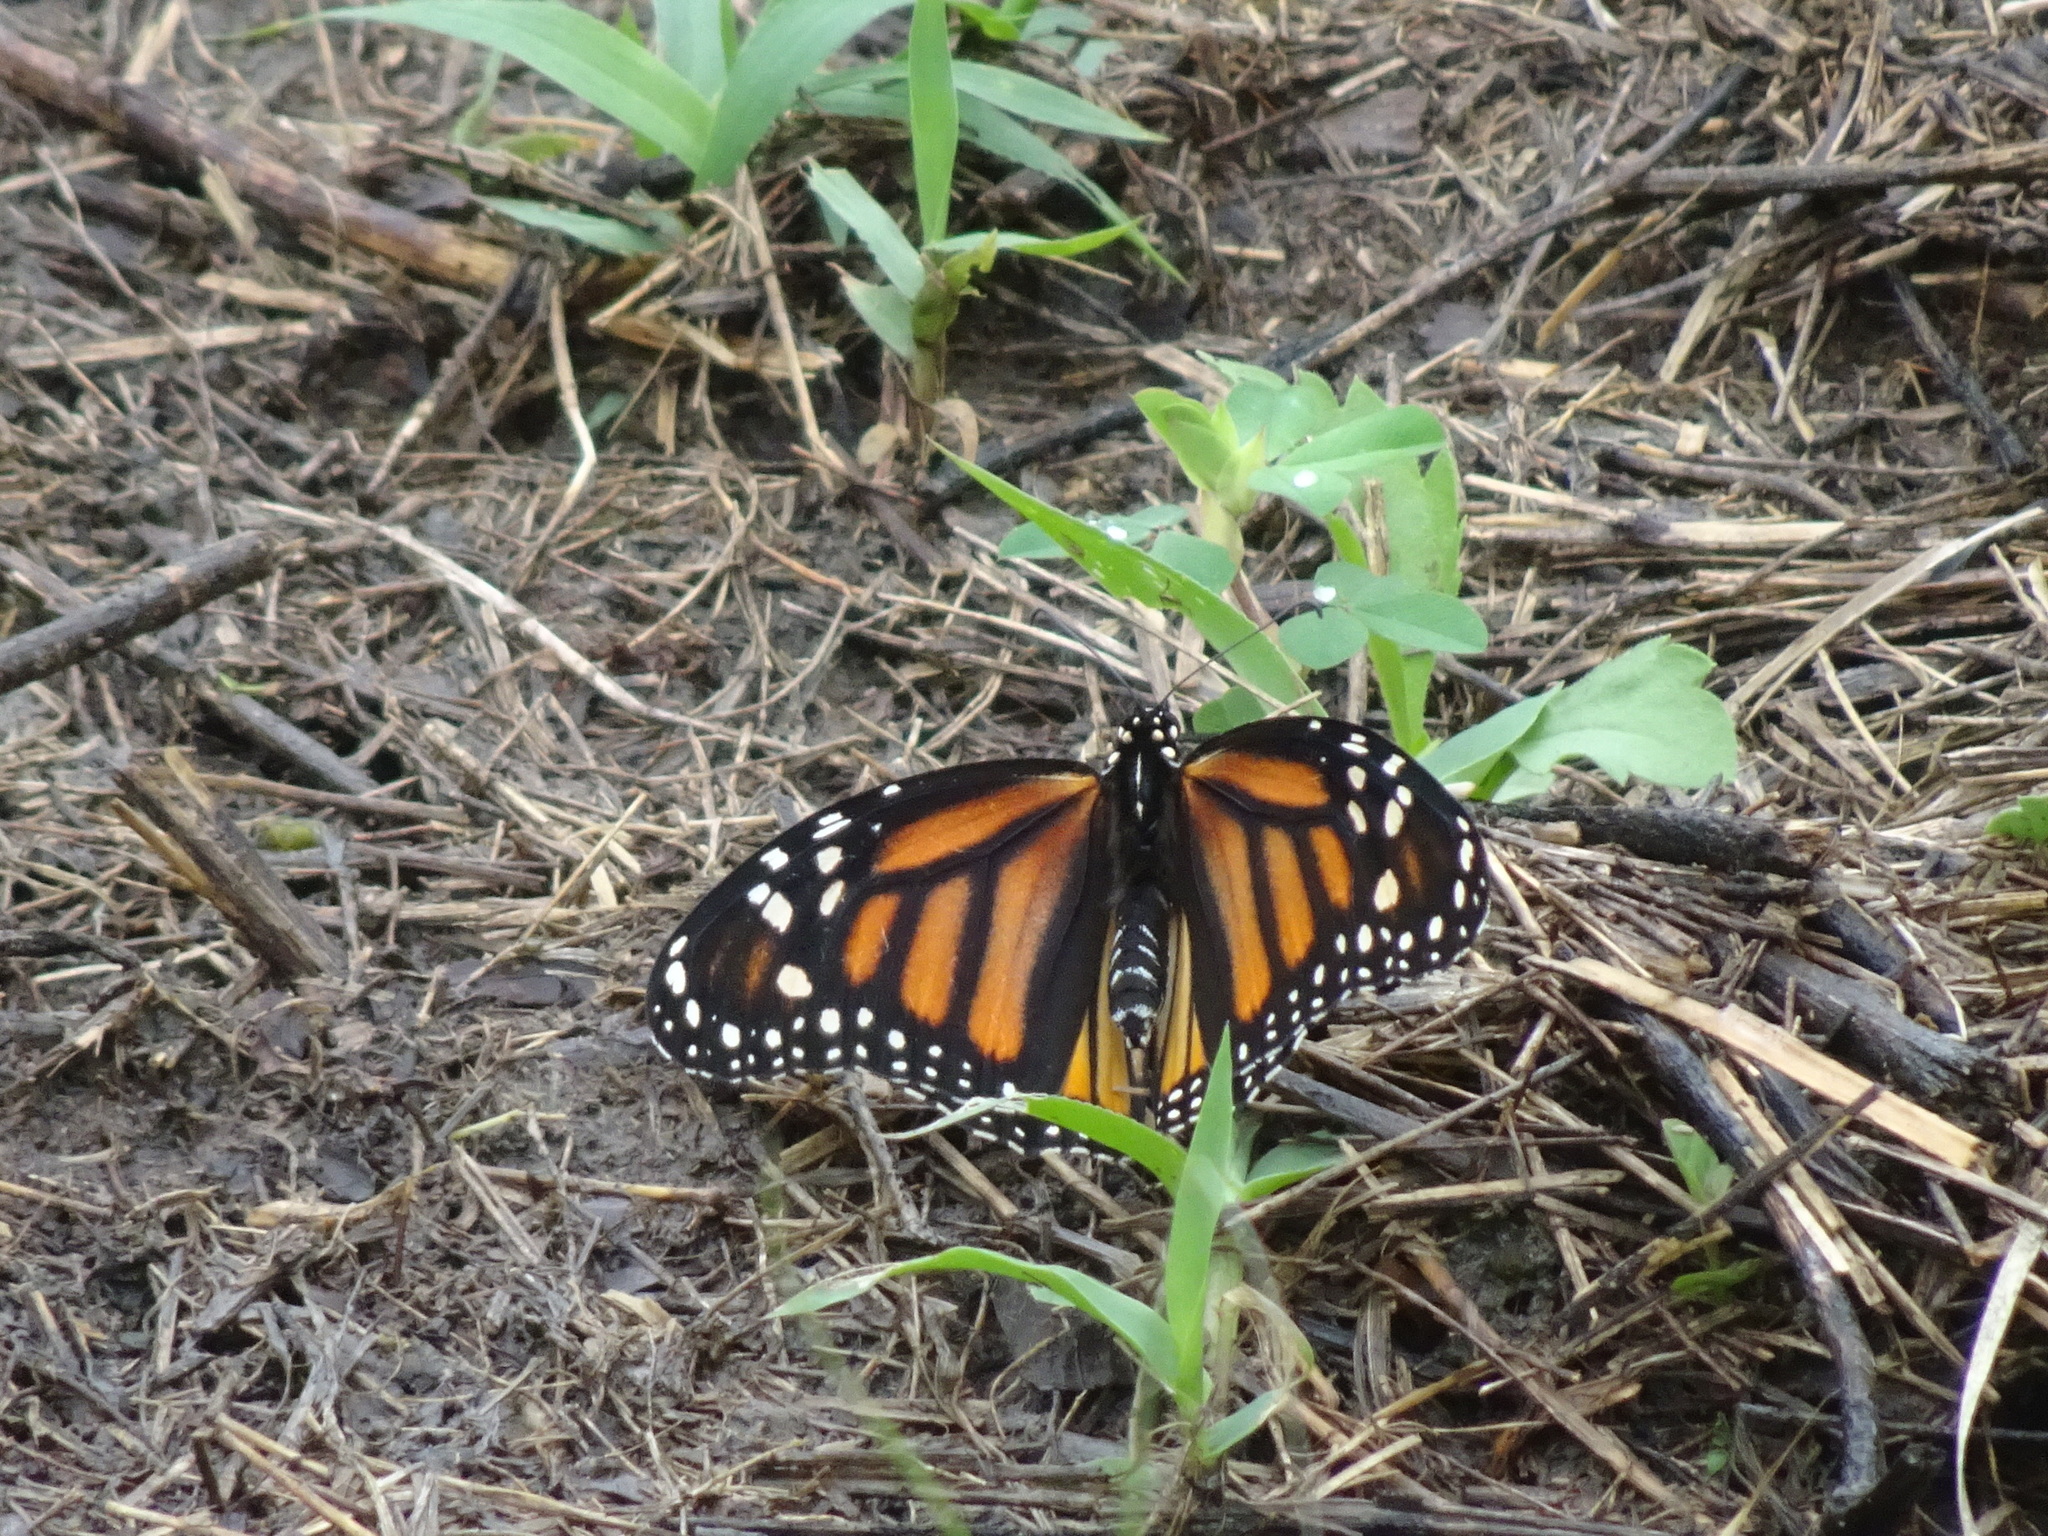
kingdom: Animalia
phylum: Arthropoda
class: Insecta
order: Lepidoptera
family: Nymphalidae
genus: Danaus
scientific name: Danaus plexippus
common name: Monarch
